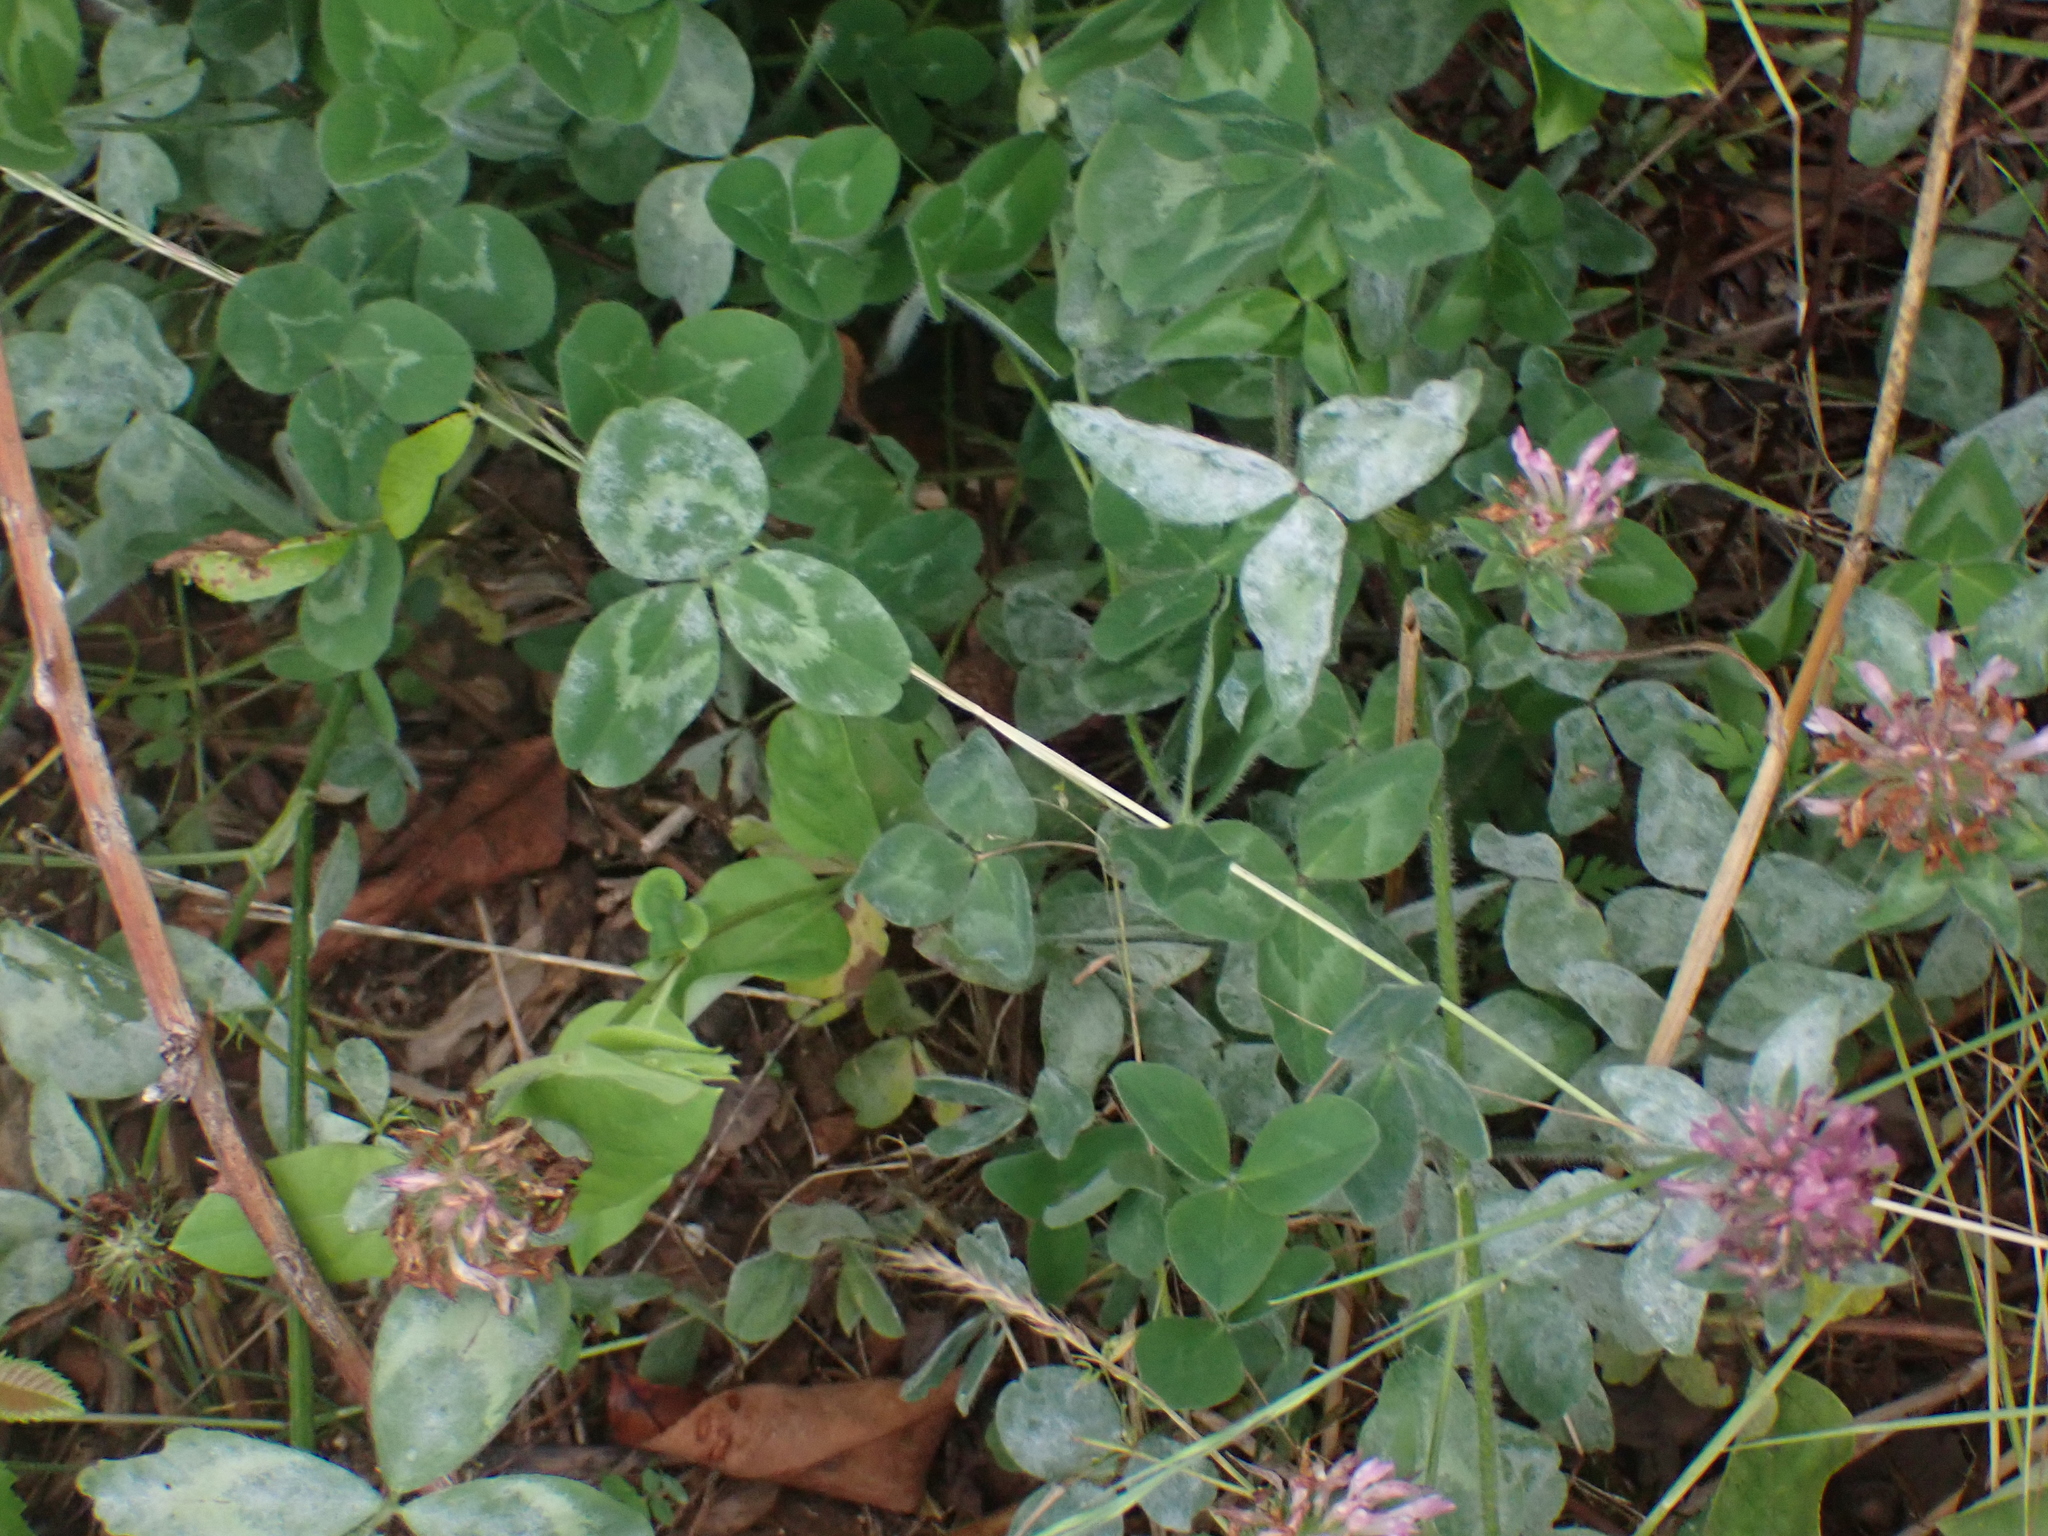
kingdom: Plantae
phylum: Tracheophyta
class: Magnoliopsida
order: Fabales
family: Fabaceae
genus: Trifolium
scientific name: Trifolium pratense
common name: Red clover
